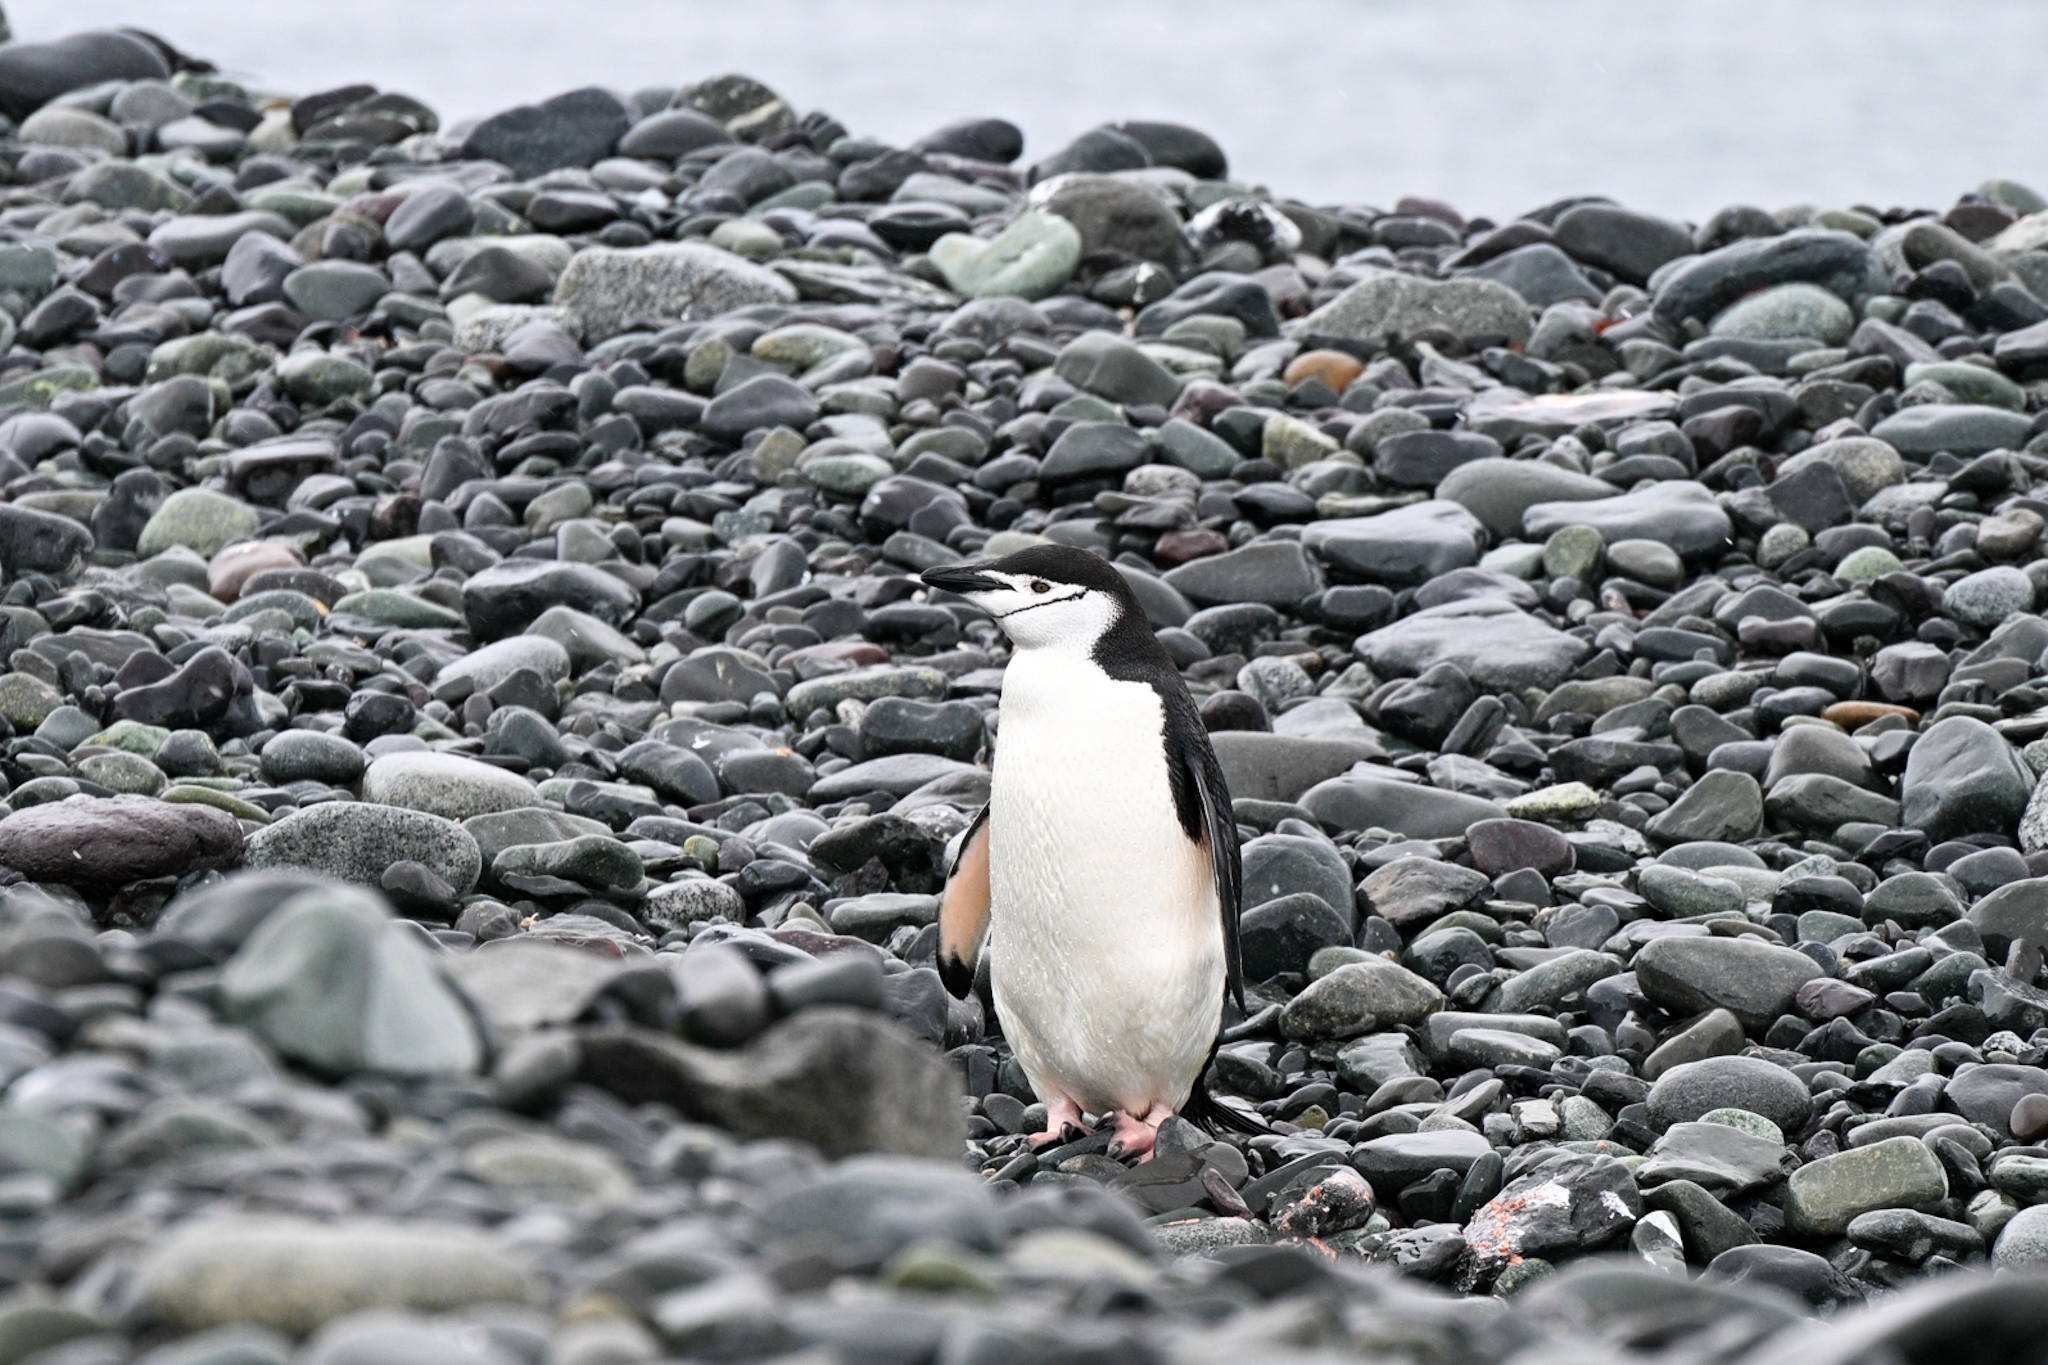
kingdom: Animalia
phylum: Chordata
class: Aves
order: Sphenisciformes
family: Spheniscidae
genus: Pygoscelis
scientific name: Pygoscelis antarcticus
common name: Chinstrap penguin
